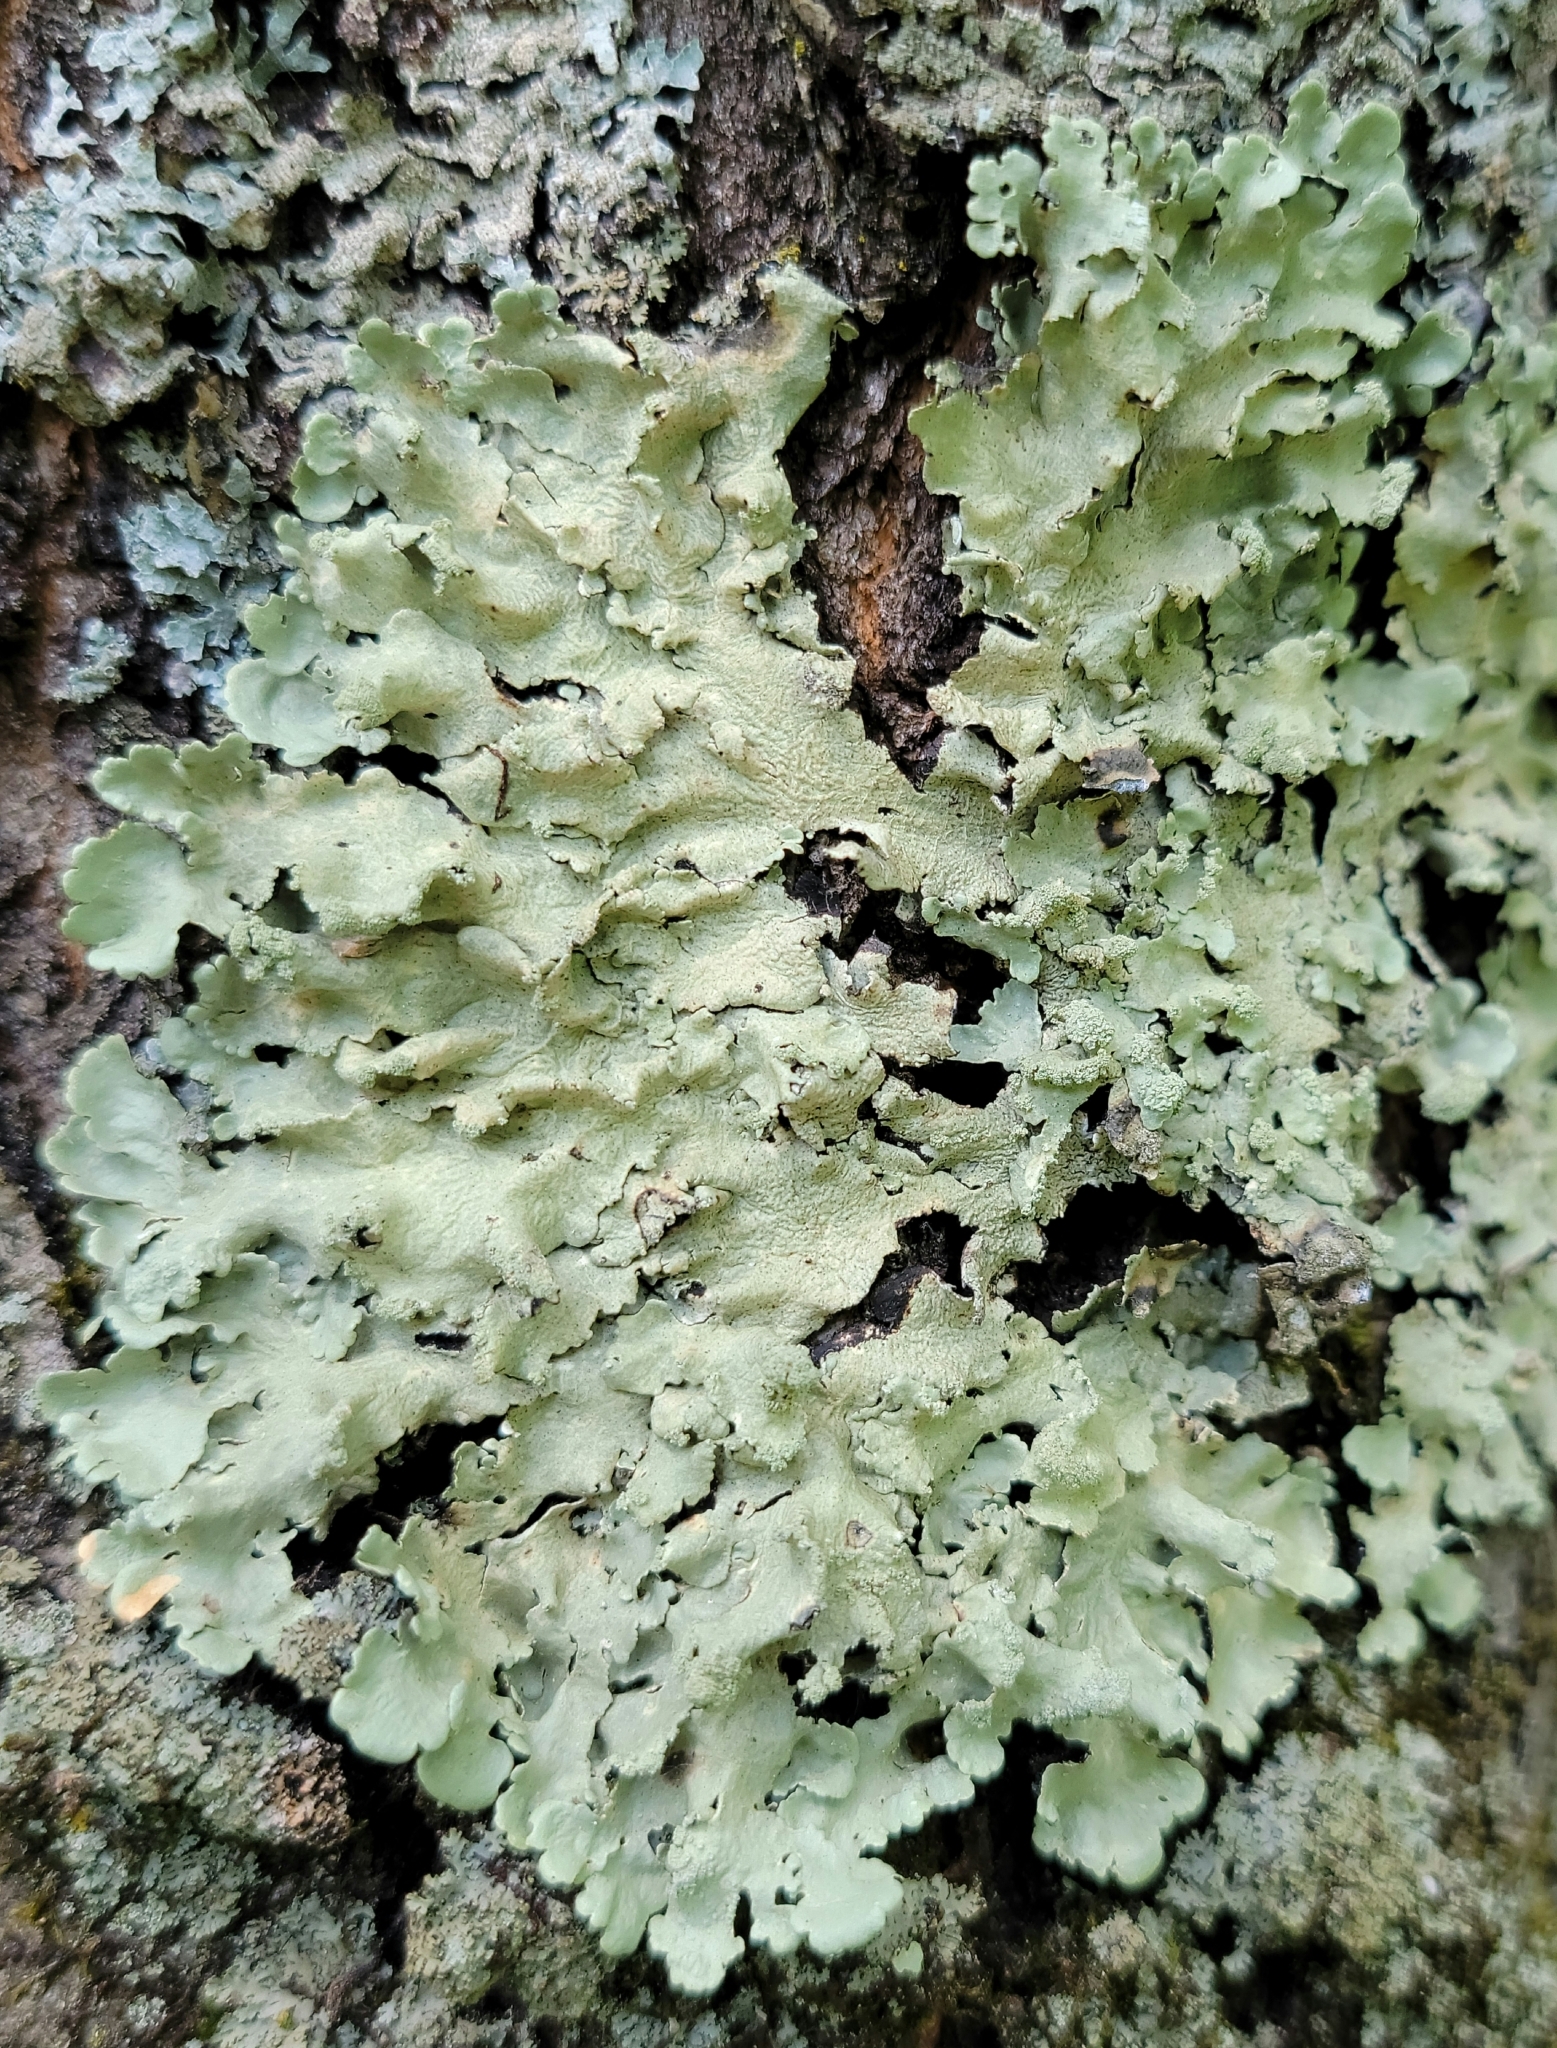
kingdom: Fungi
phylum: Ascomycota
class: Lecanoromycetes
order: Lecanorales
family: Parmeliaceae
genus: Flavoparmelia
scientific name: Flavoparmelia caperata
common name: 40-mile per hour lichen
